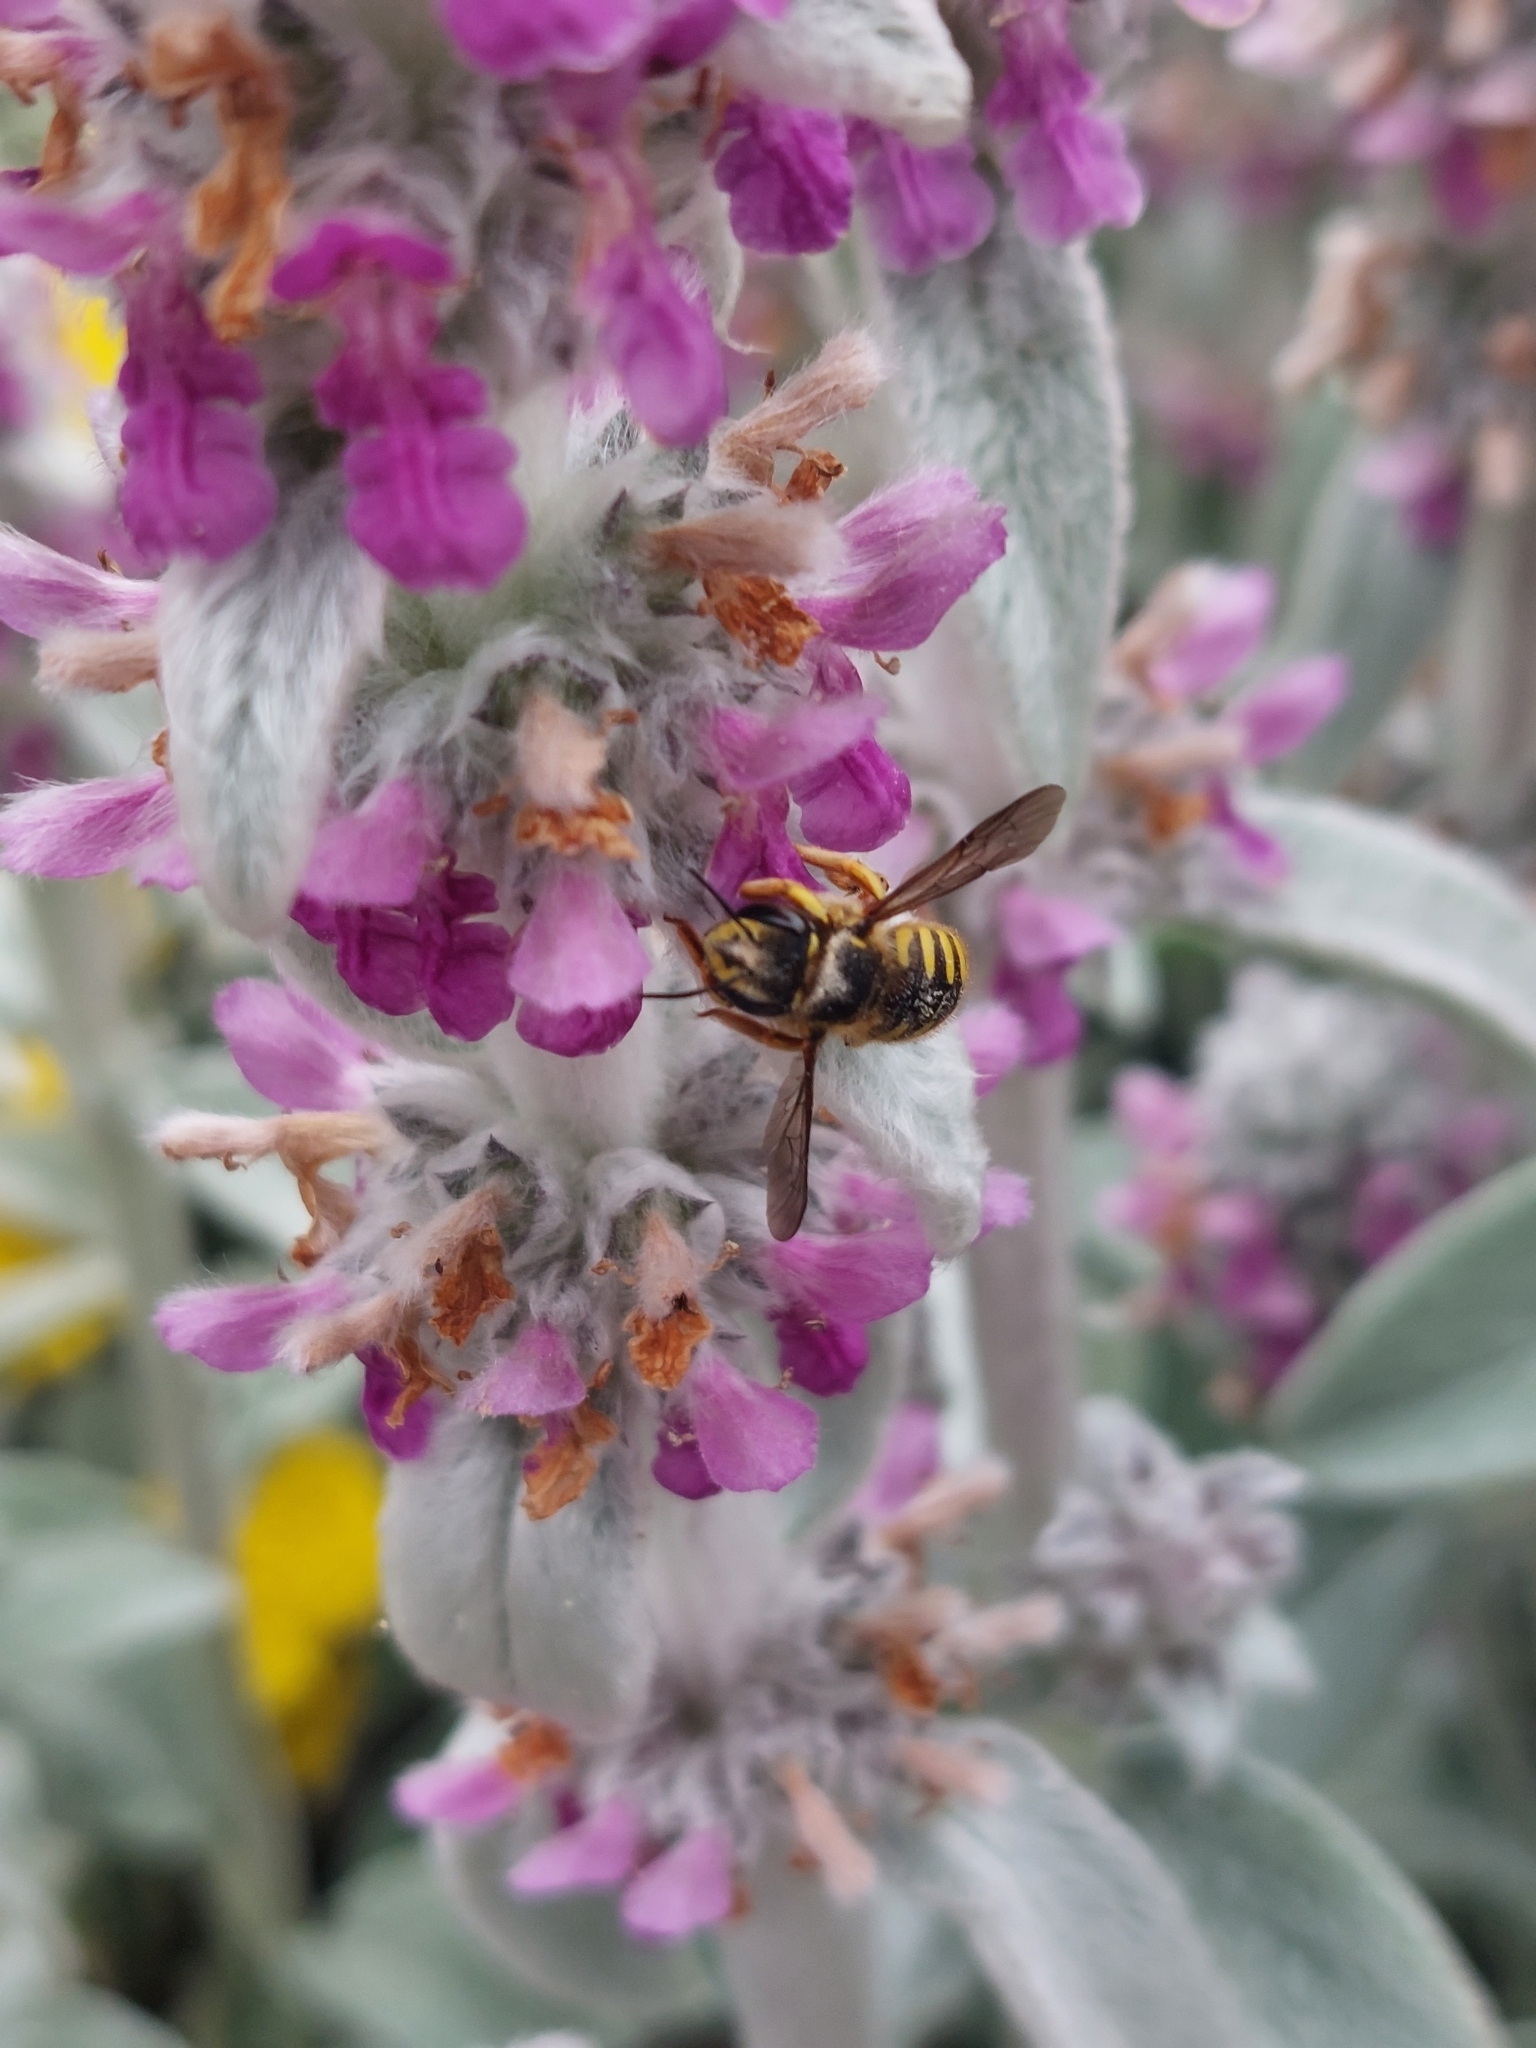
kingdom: Animalia
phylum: Arthropoda
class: Insecta
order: Hymenoptera
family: Megachilidae
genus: Anthidium
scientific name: Anthidium manicatum
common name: Wool carder bee
